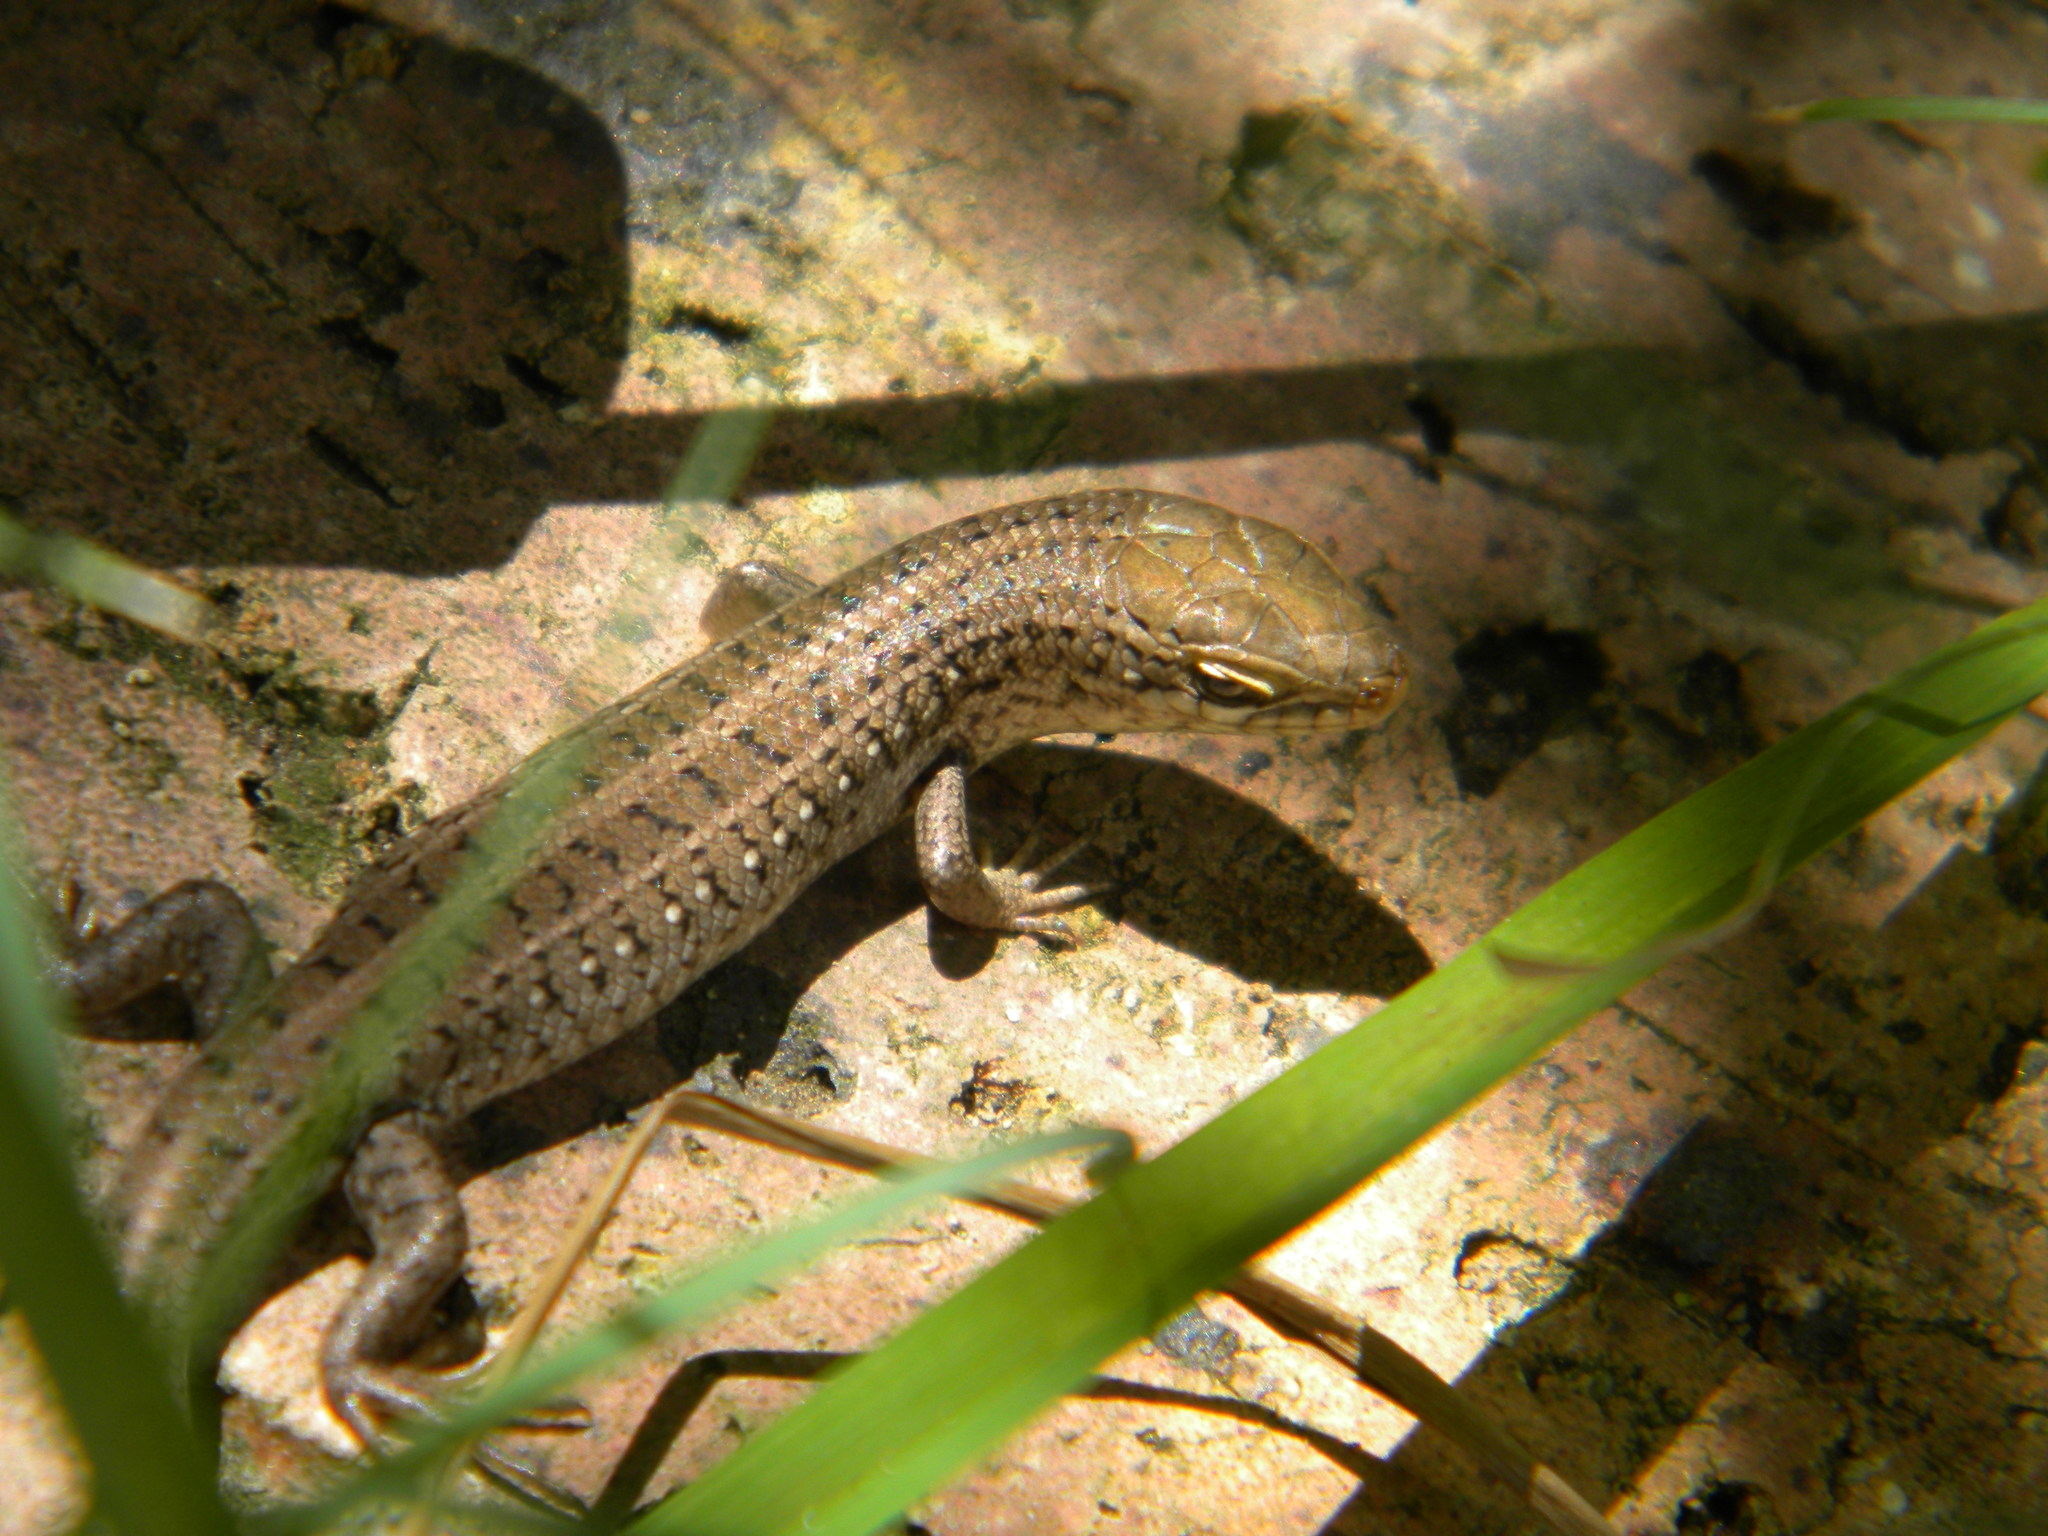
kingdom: Animalia
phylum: Chordata
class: Squamata
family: Scincidae
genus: Trachylepis
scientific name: Trachylepis capensis
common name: Cape skink
